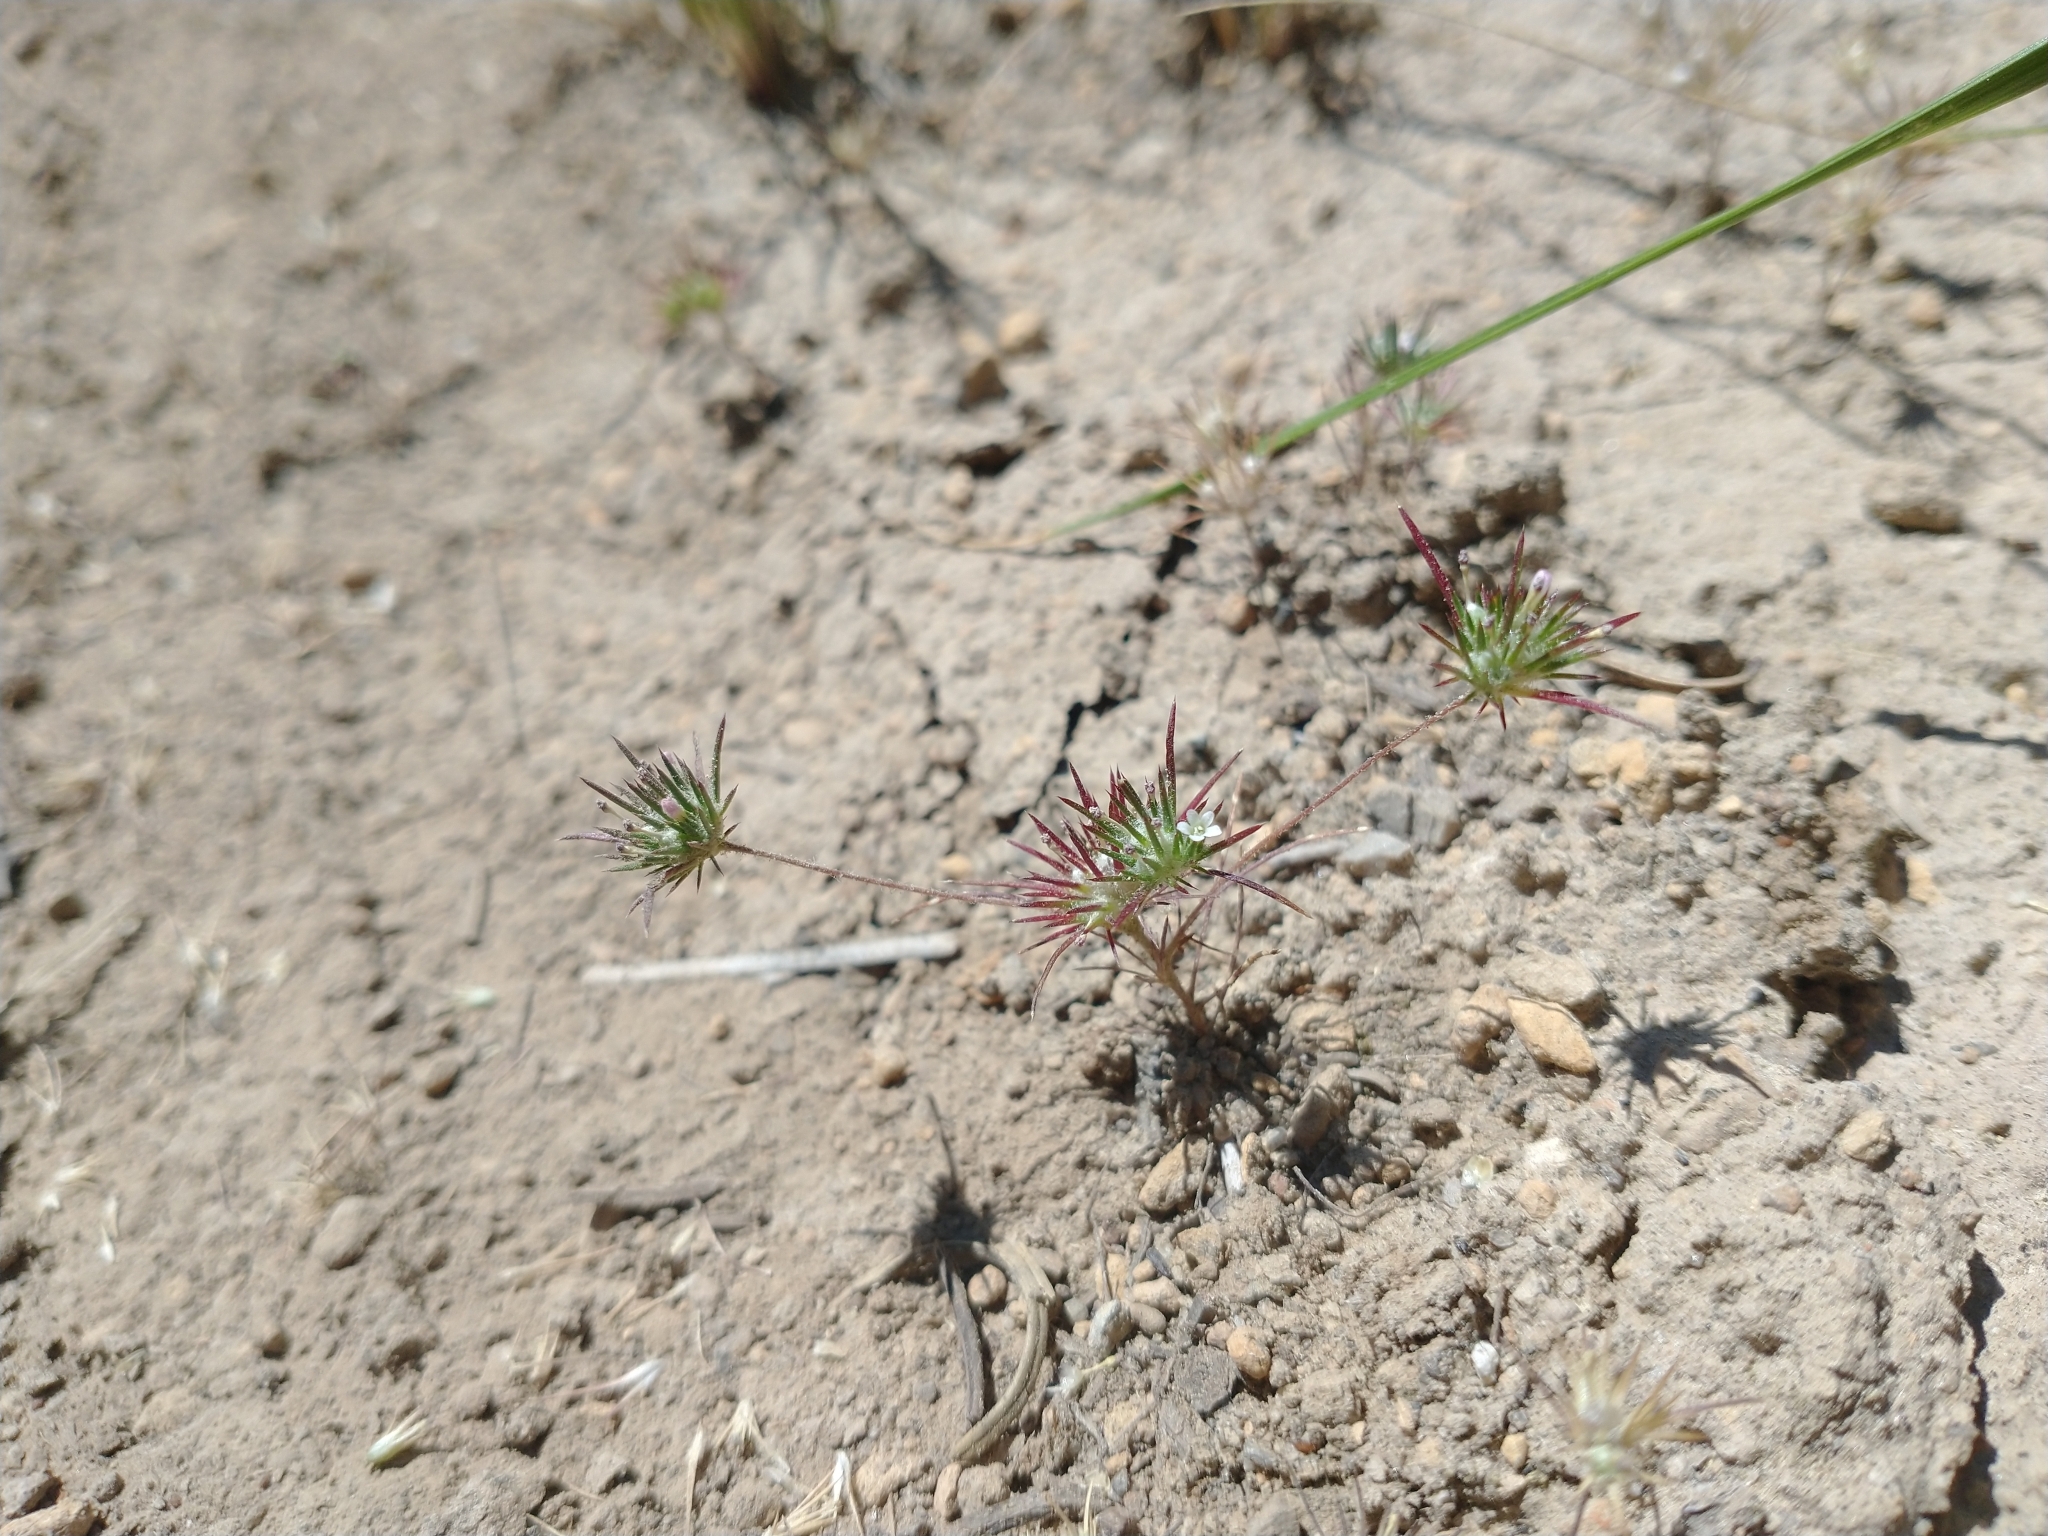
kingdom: Plantae
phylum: Tracheophyta
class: Magnoliopsida
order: Ericales
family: Polemoniaceae
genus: Navarretia
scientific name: Navarretia divaricata
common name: Mountain navarretia
